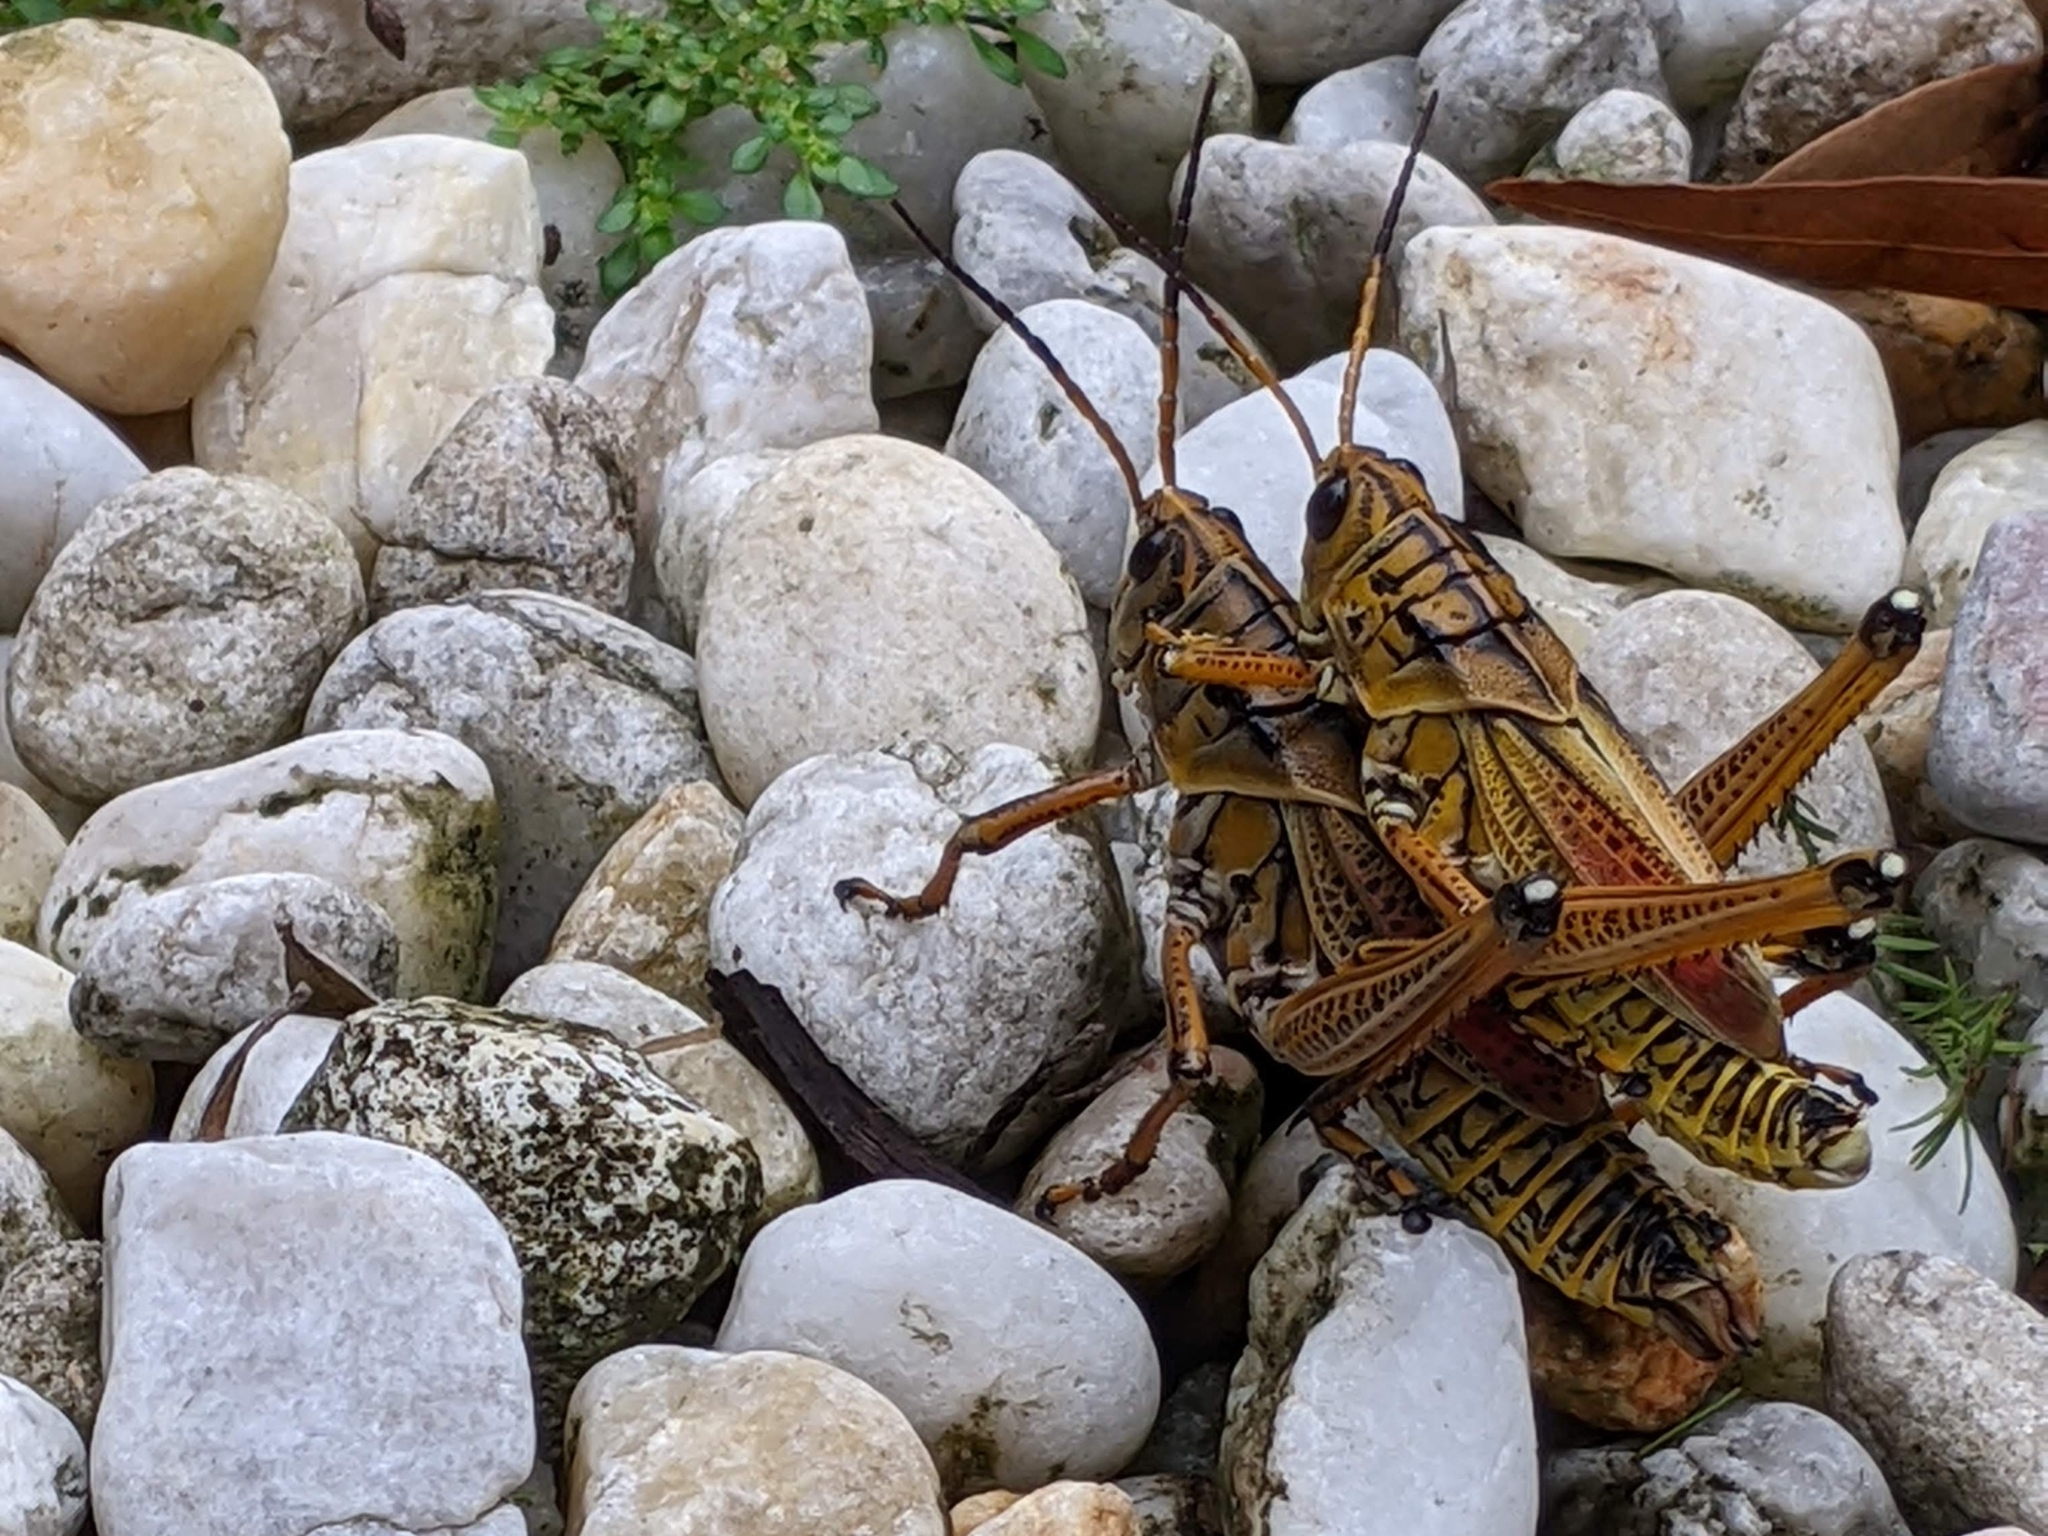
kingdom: Animalia
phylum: Arthropoda
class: Insecta
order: Orthoptera
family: Romaleidae
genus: Romalea
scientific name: Romalea microptera
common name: Eastern lubber grasshopper
